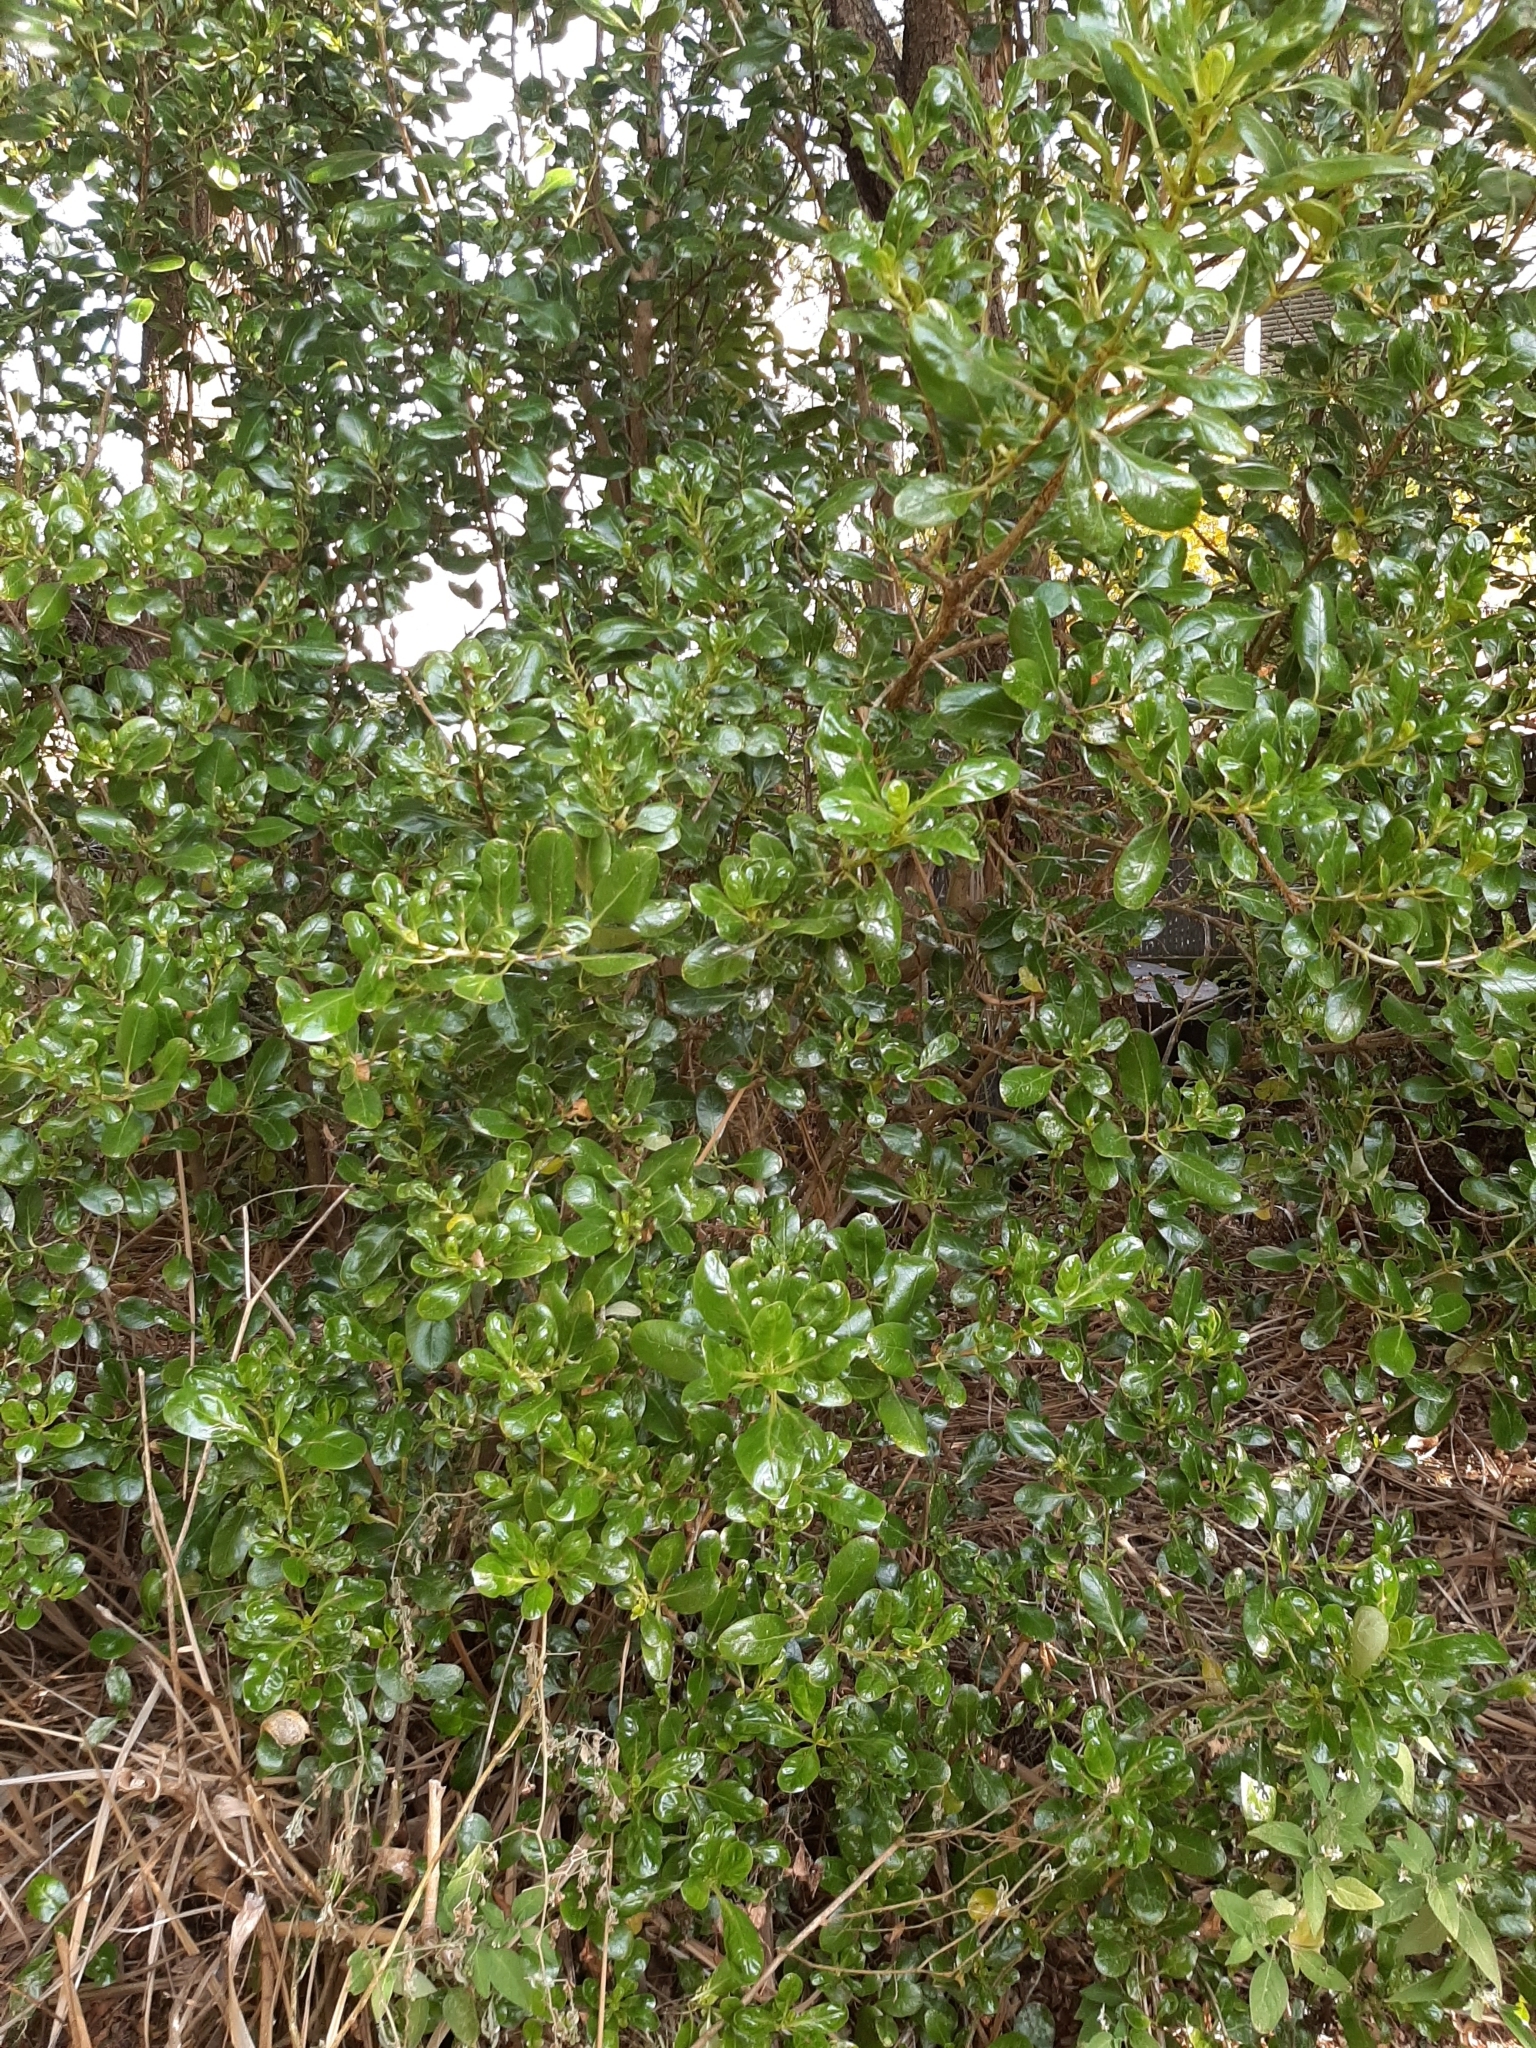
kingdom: Plantae
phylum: Tracheophyta
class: Magnoliopsida
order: Gentianales
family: Rubiaceae
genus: Coprosma
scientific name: Coprosma repens
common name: Tree bedstraw
